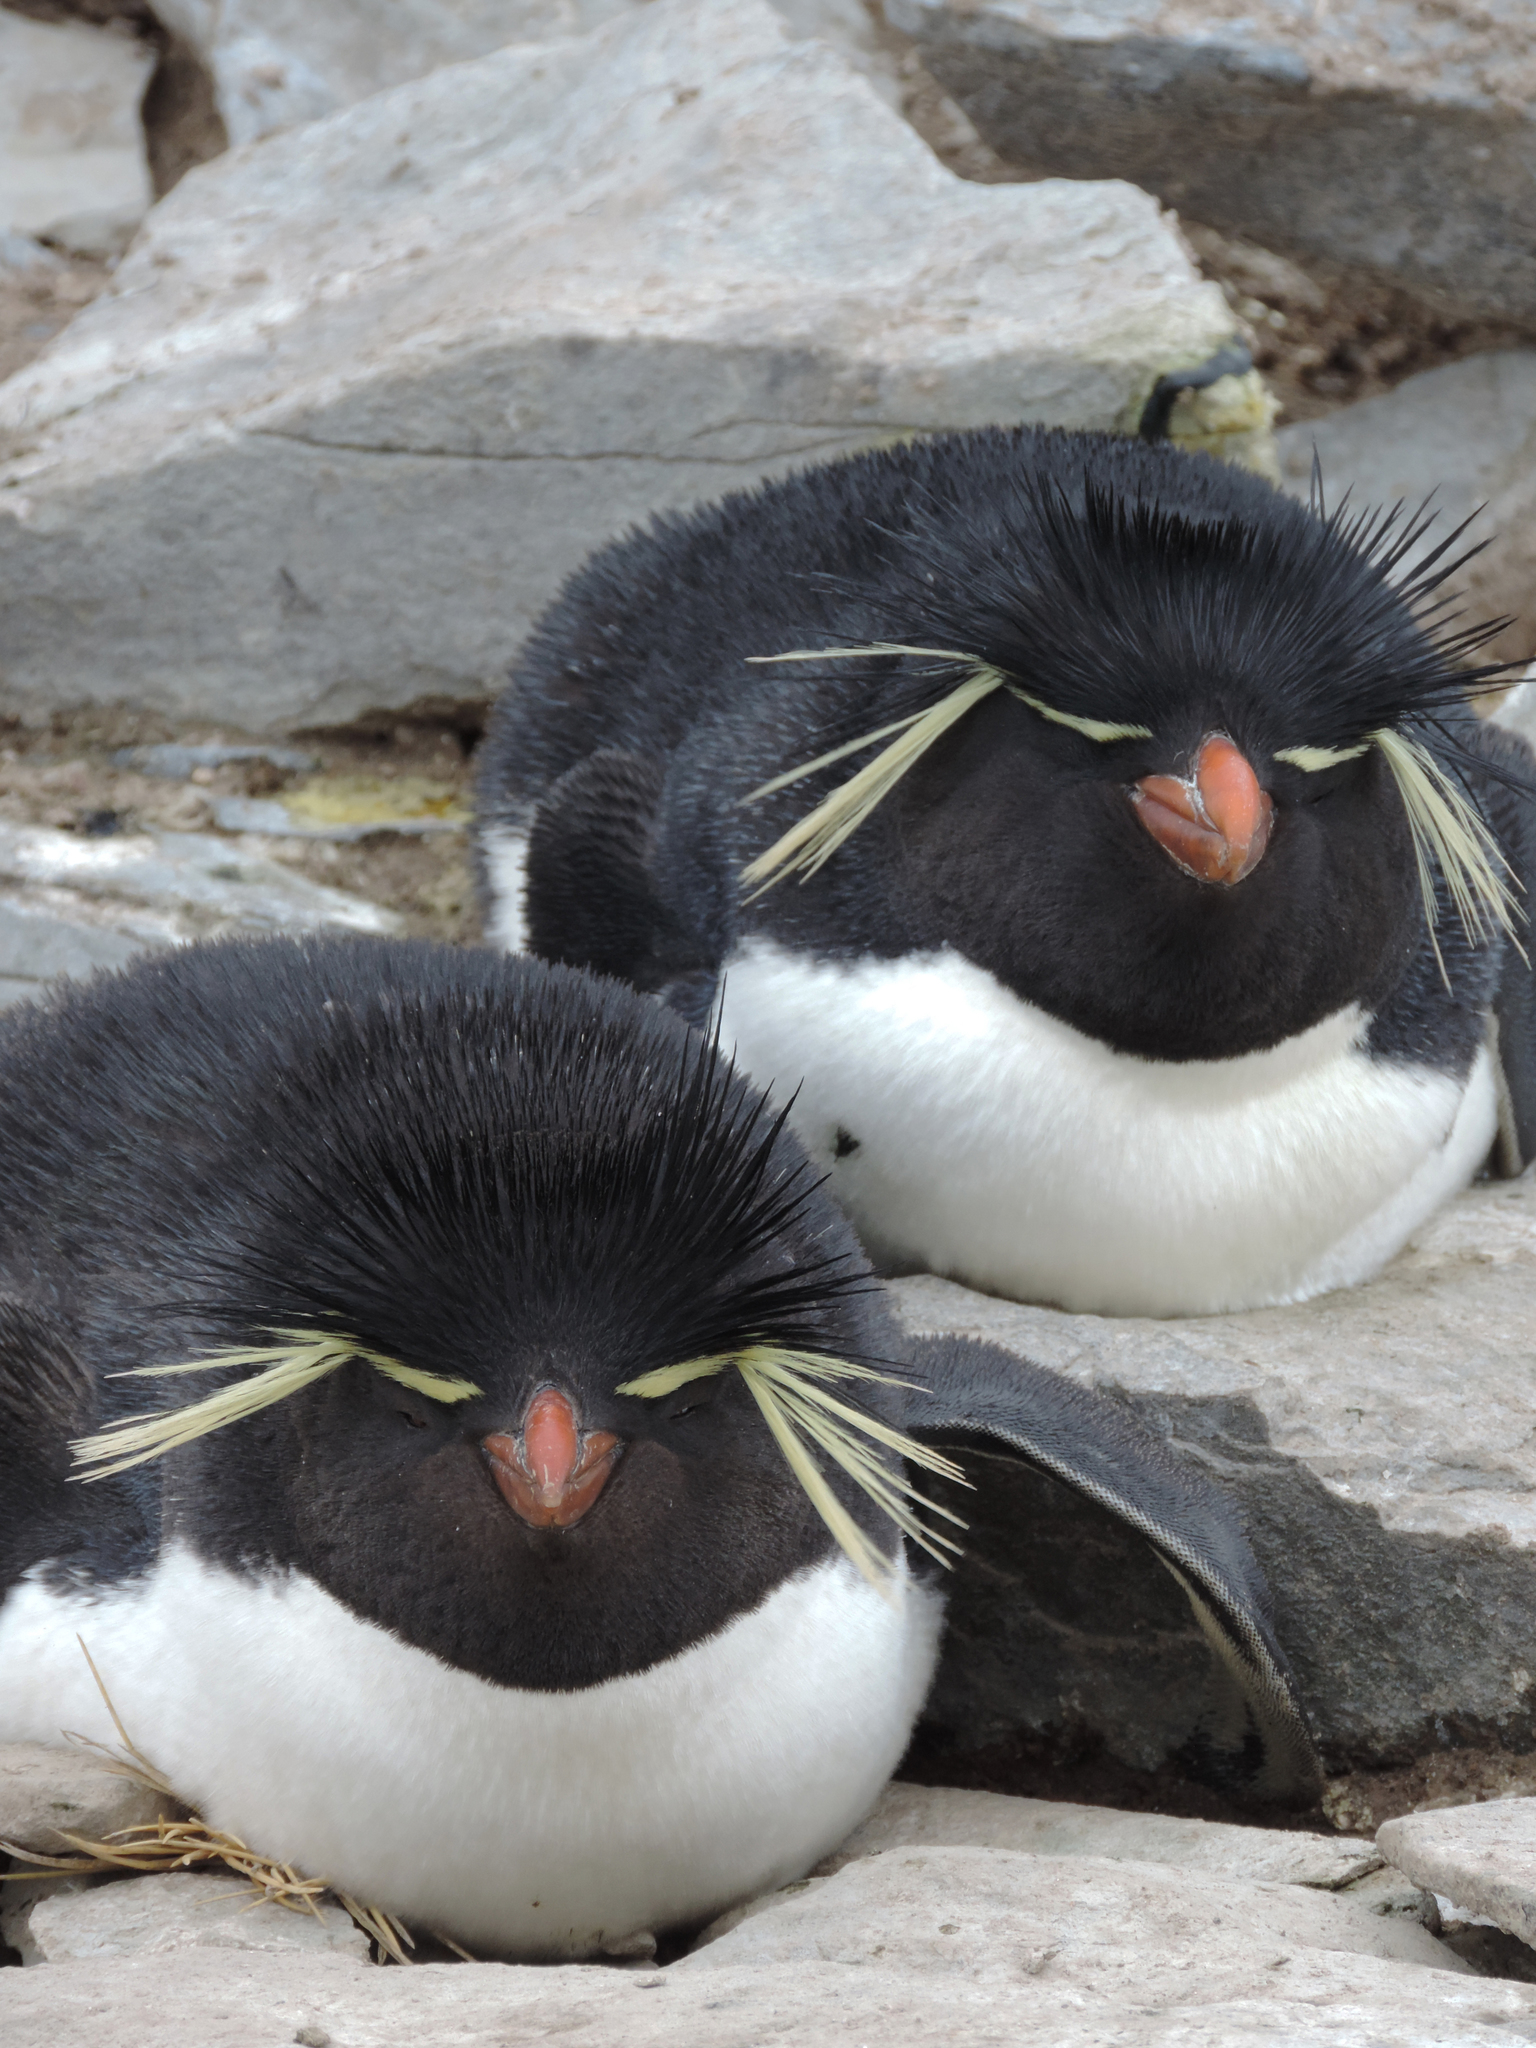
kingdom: Animalia
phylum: Chordata
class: Aves
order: Sphenisciformes
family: Spheniscidae
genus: Eudyptes
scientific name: Eudyptes chrysocome
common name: Southern rockhopper penguin
